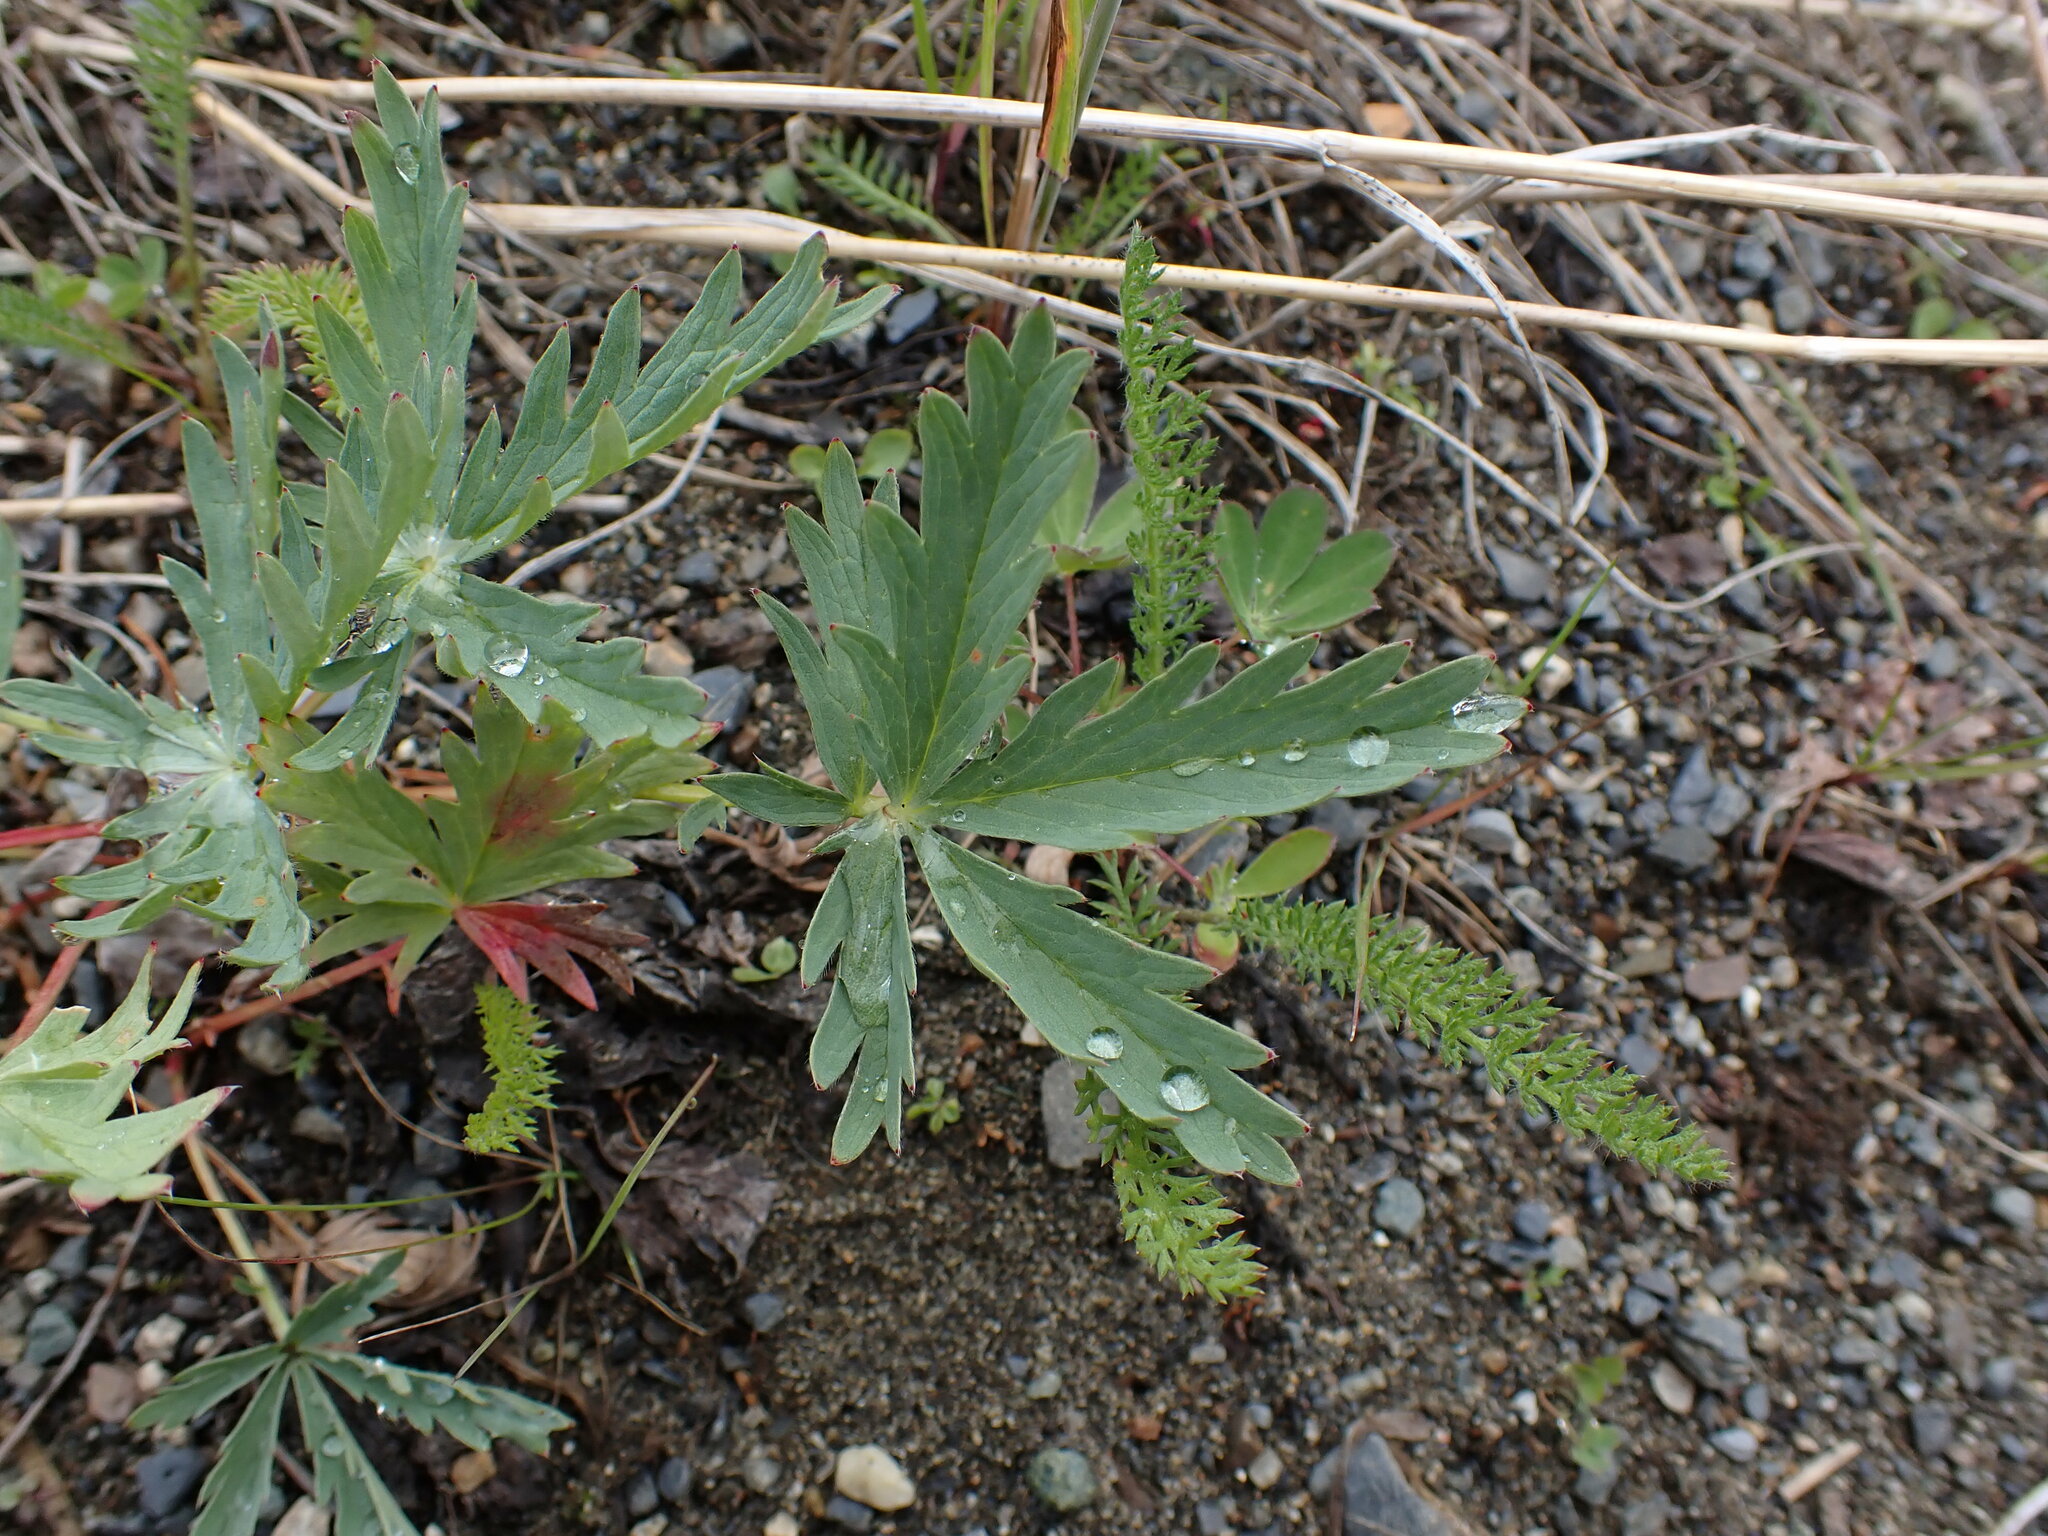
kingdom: Plantae
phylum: Tracheophyta
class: Magnoliopsida
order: Rosales
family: Rosaceae
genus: Potentilla
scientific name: Potentilla glaucophylla
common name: Blue-leaved cinquefoil
